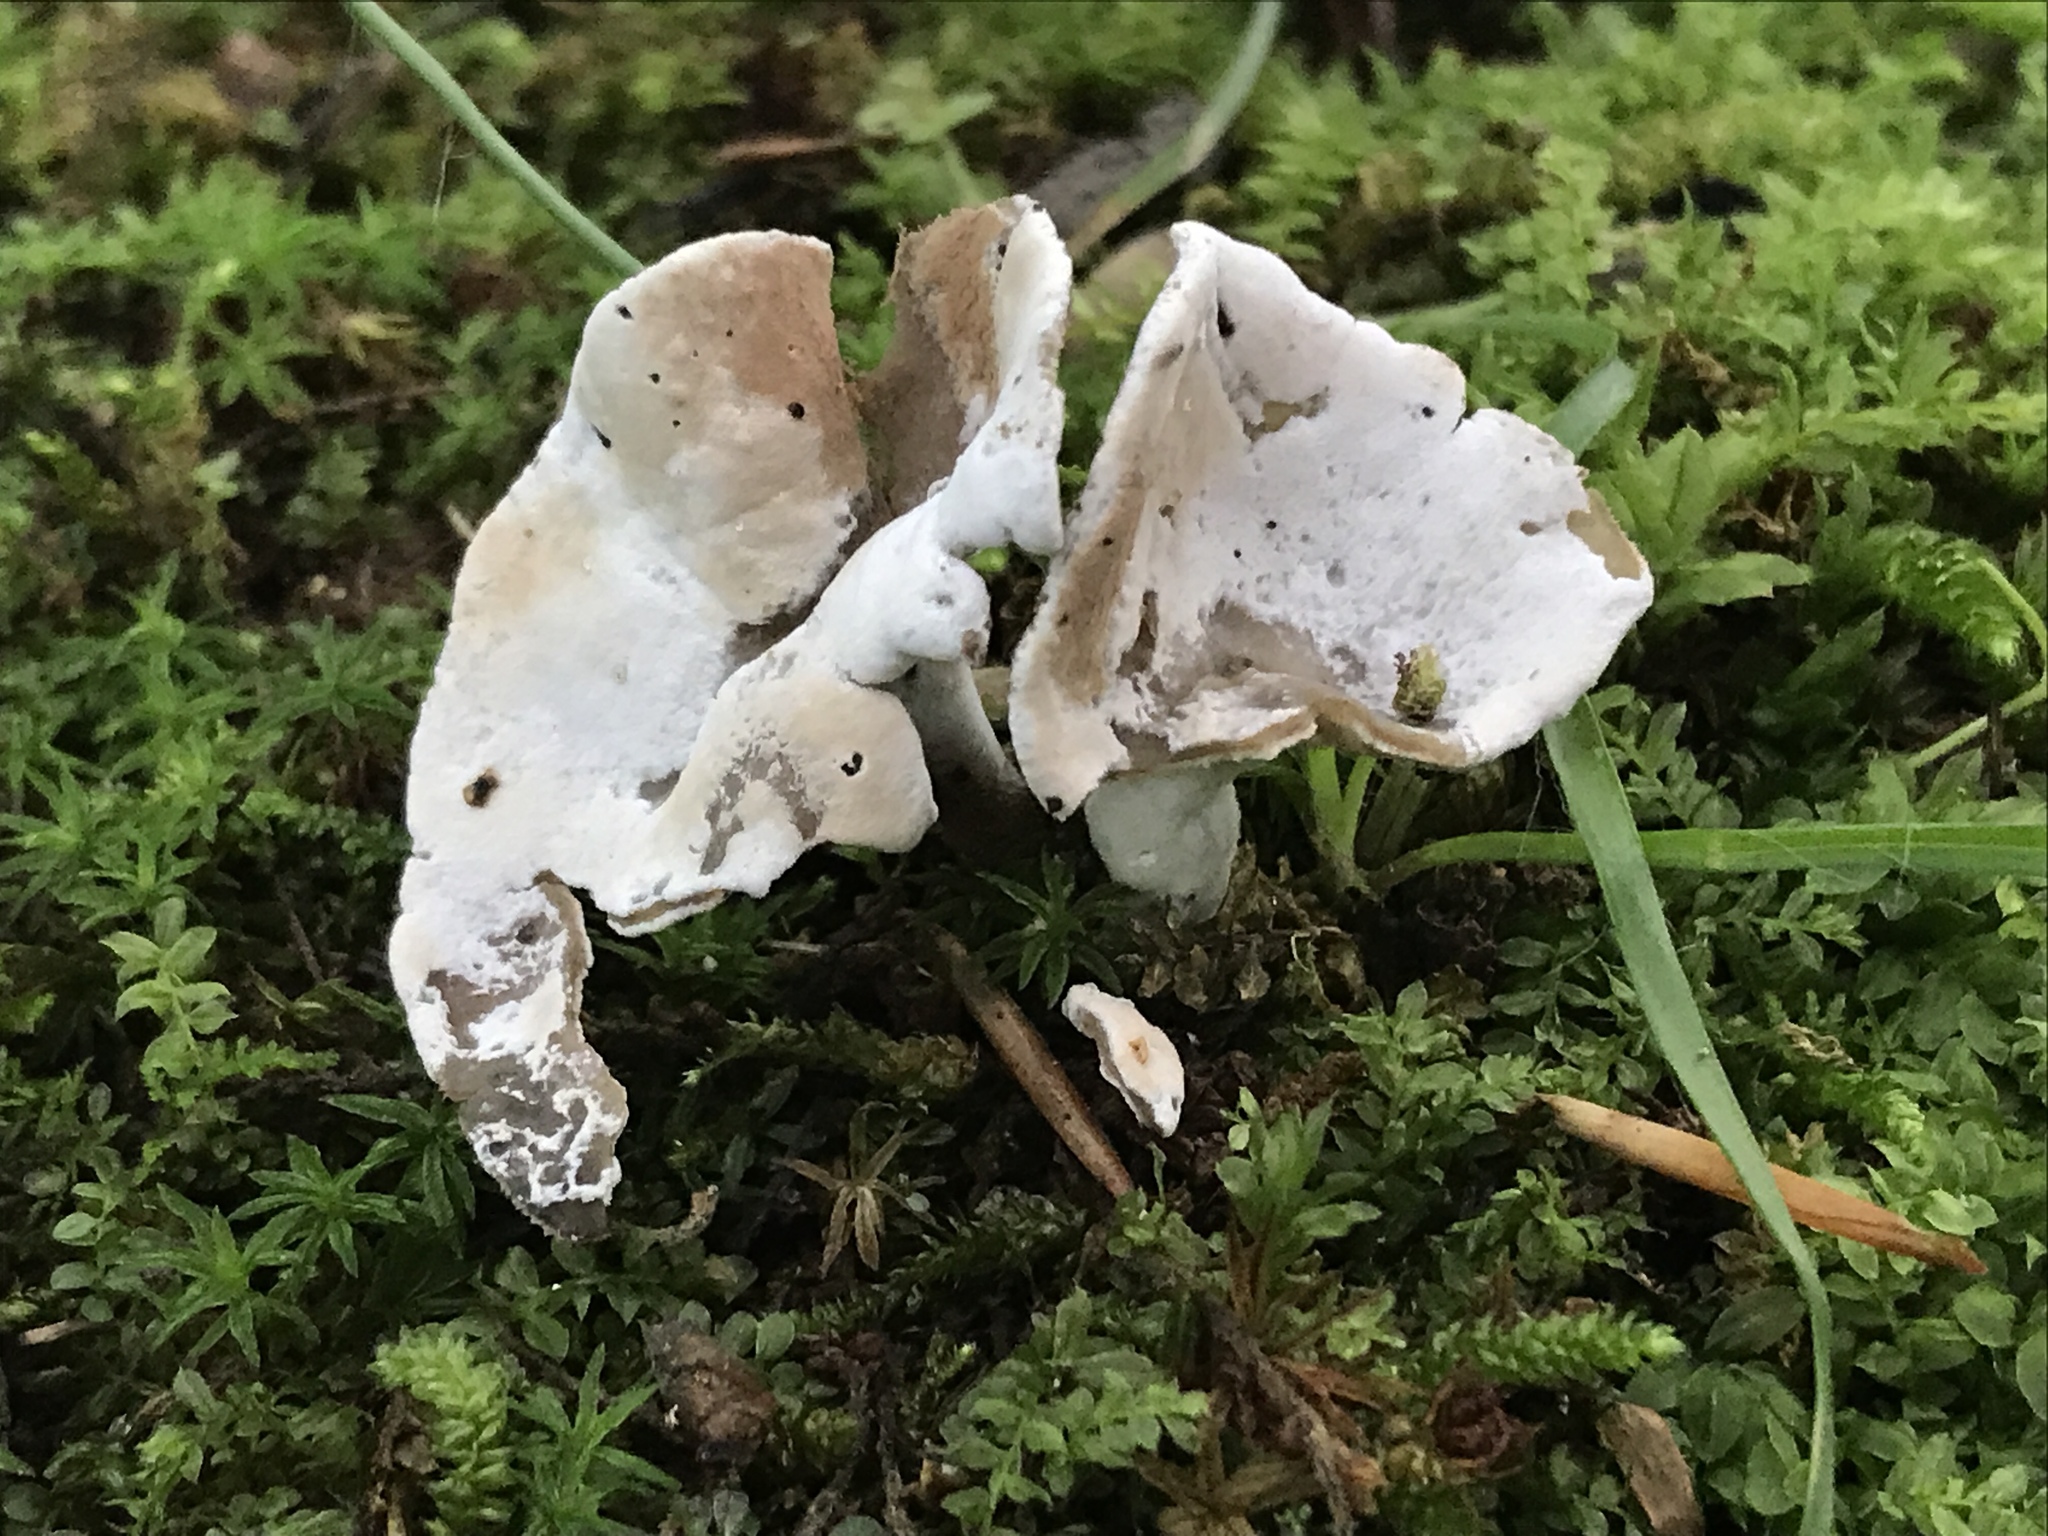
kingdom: Fungi
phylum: Ascomycota
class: Sordariomycetes
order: Hypocreales
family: Hypocreaceae
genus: Hypomyces
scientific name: Hypomyces cervinus
